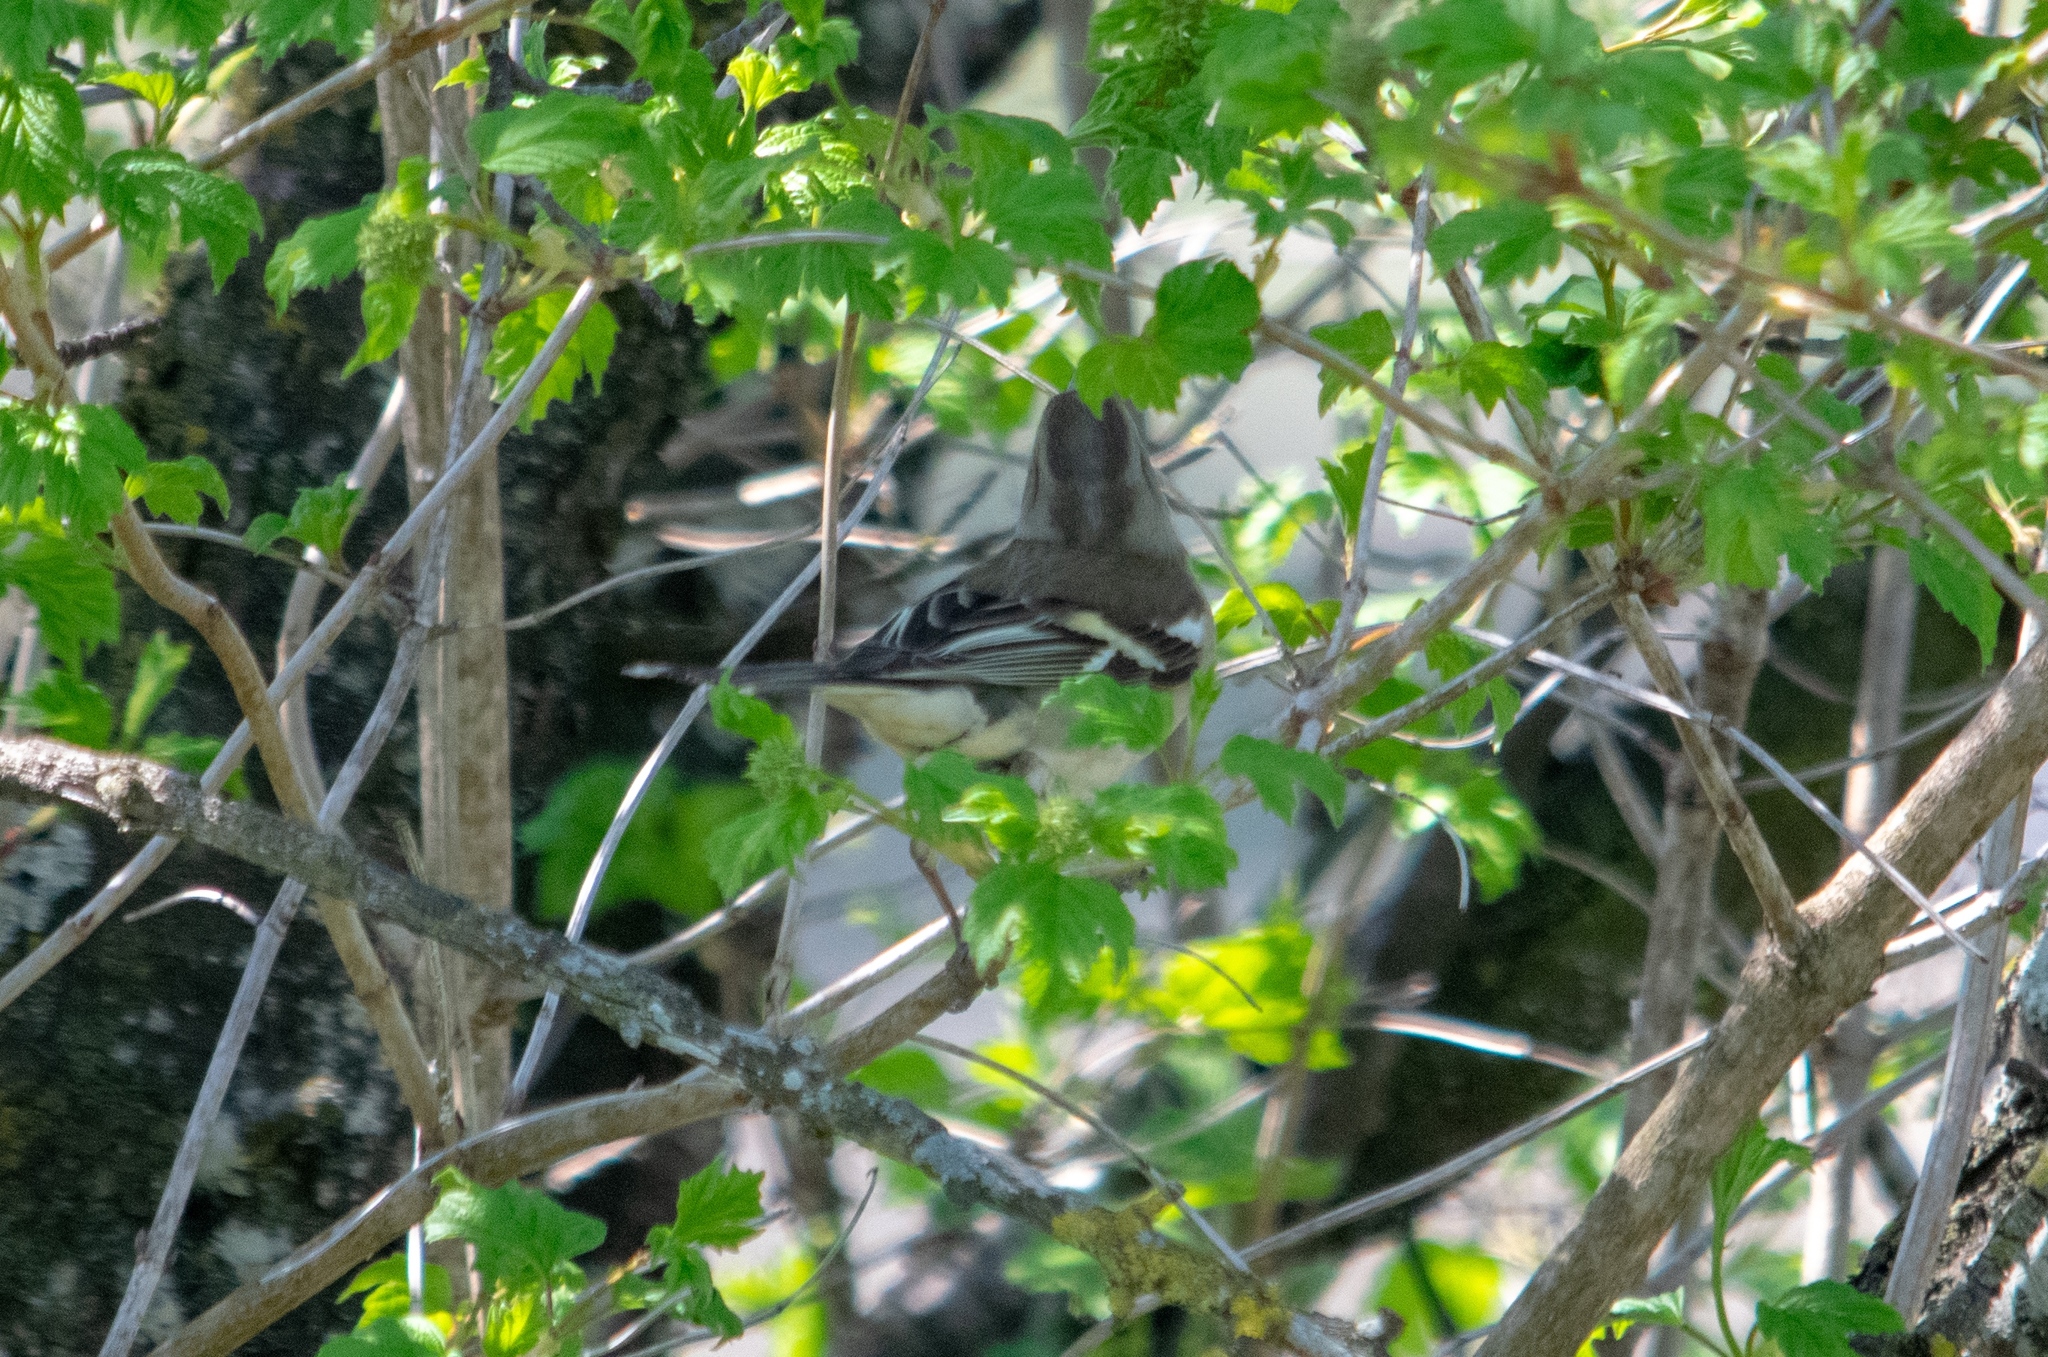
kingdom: Animalia
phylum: Chordata
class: Aves
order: Passeriformes
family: Fringillidae
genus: Fringilla
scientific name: Fringilla coelebs
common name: Common chaffinch
